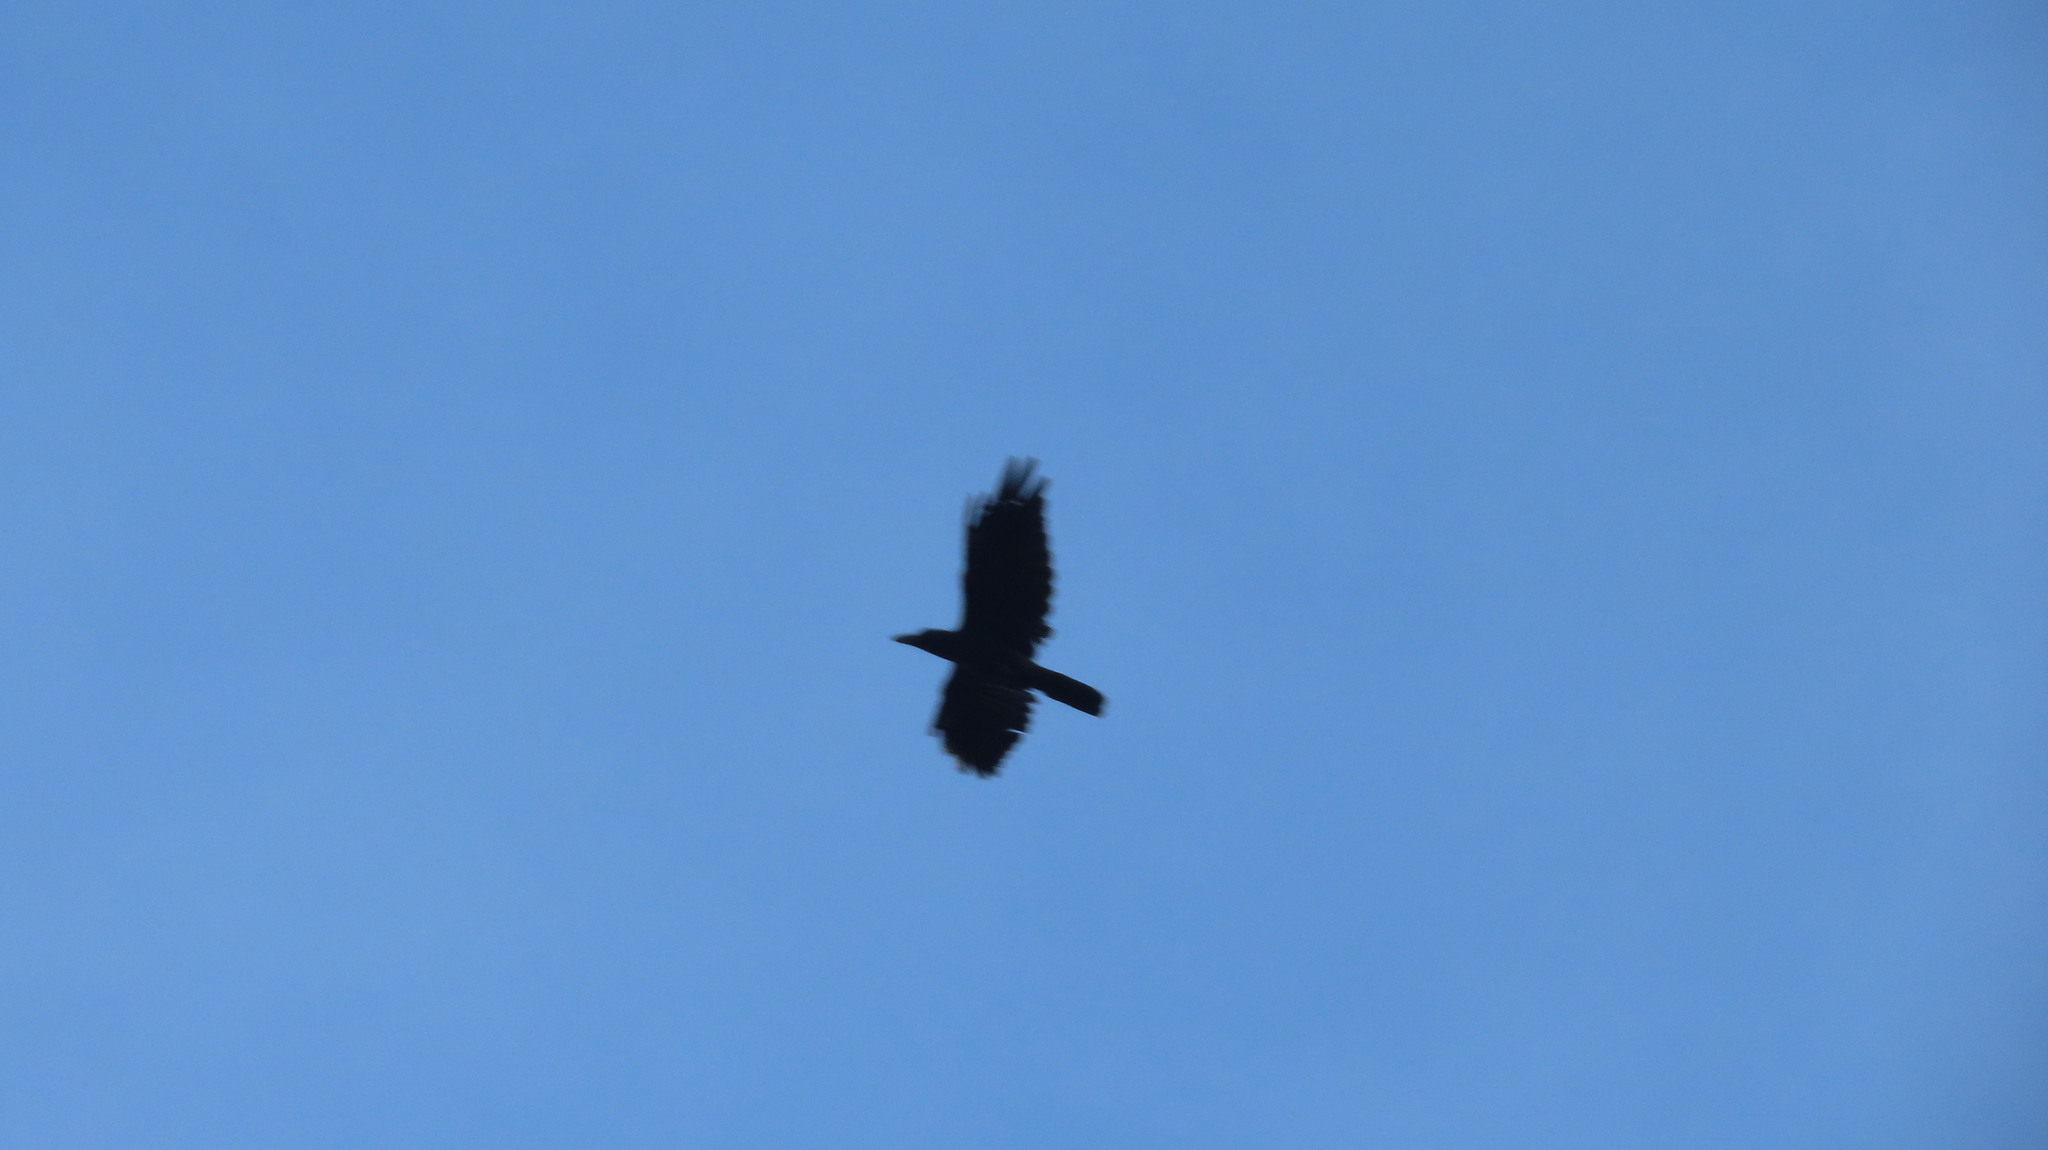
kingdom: Animalia
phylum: Chordata
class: Aves
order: Passeriformes
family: Corvidae
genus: Corvus
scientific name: Corvus macrorhynchos
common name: Large-billed crow
